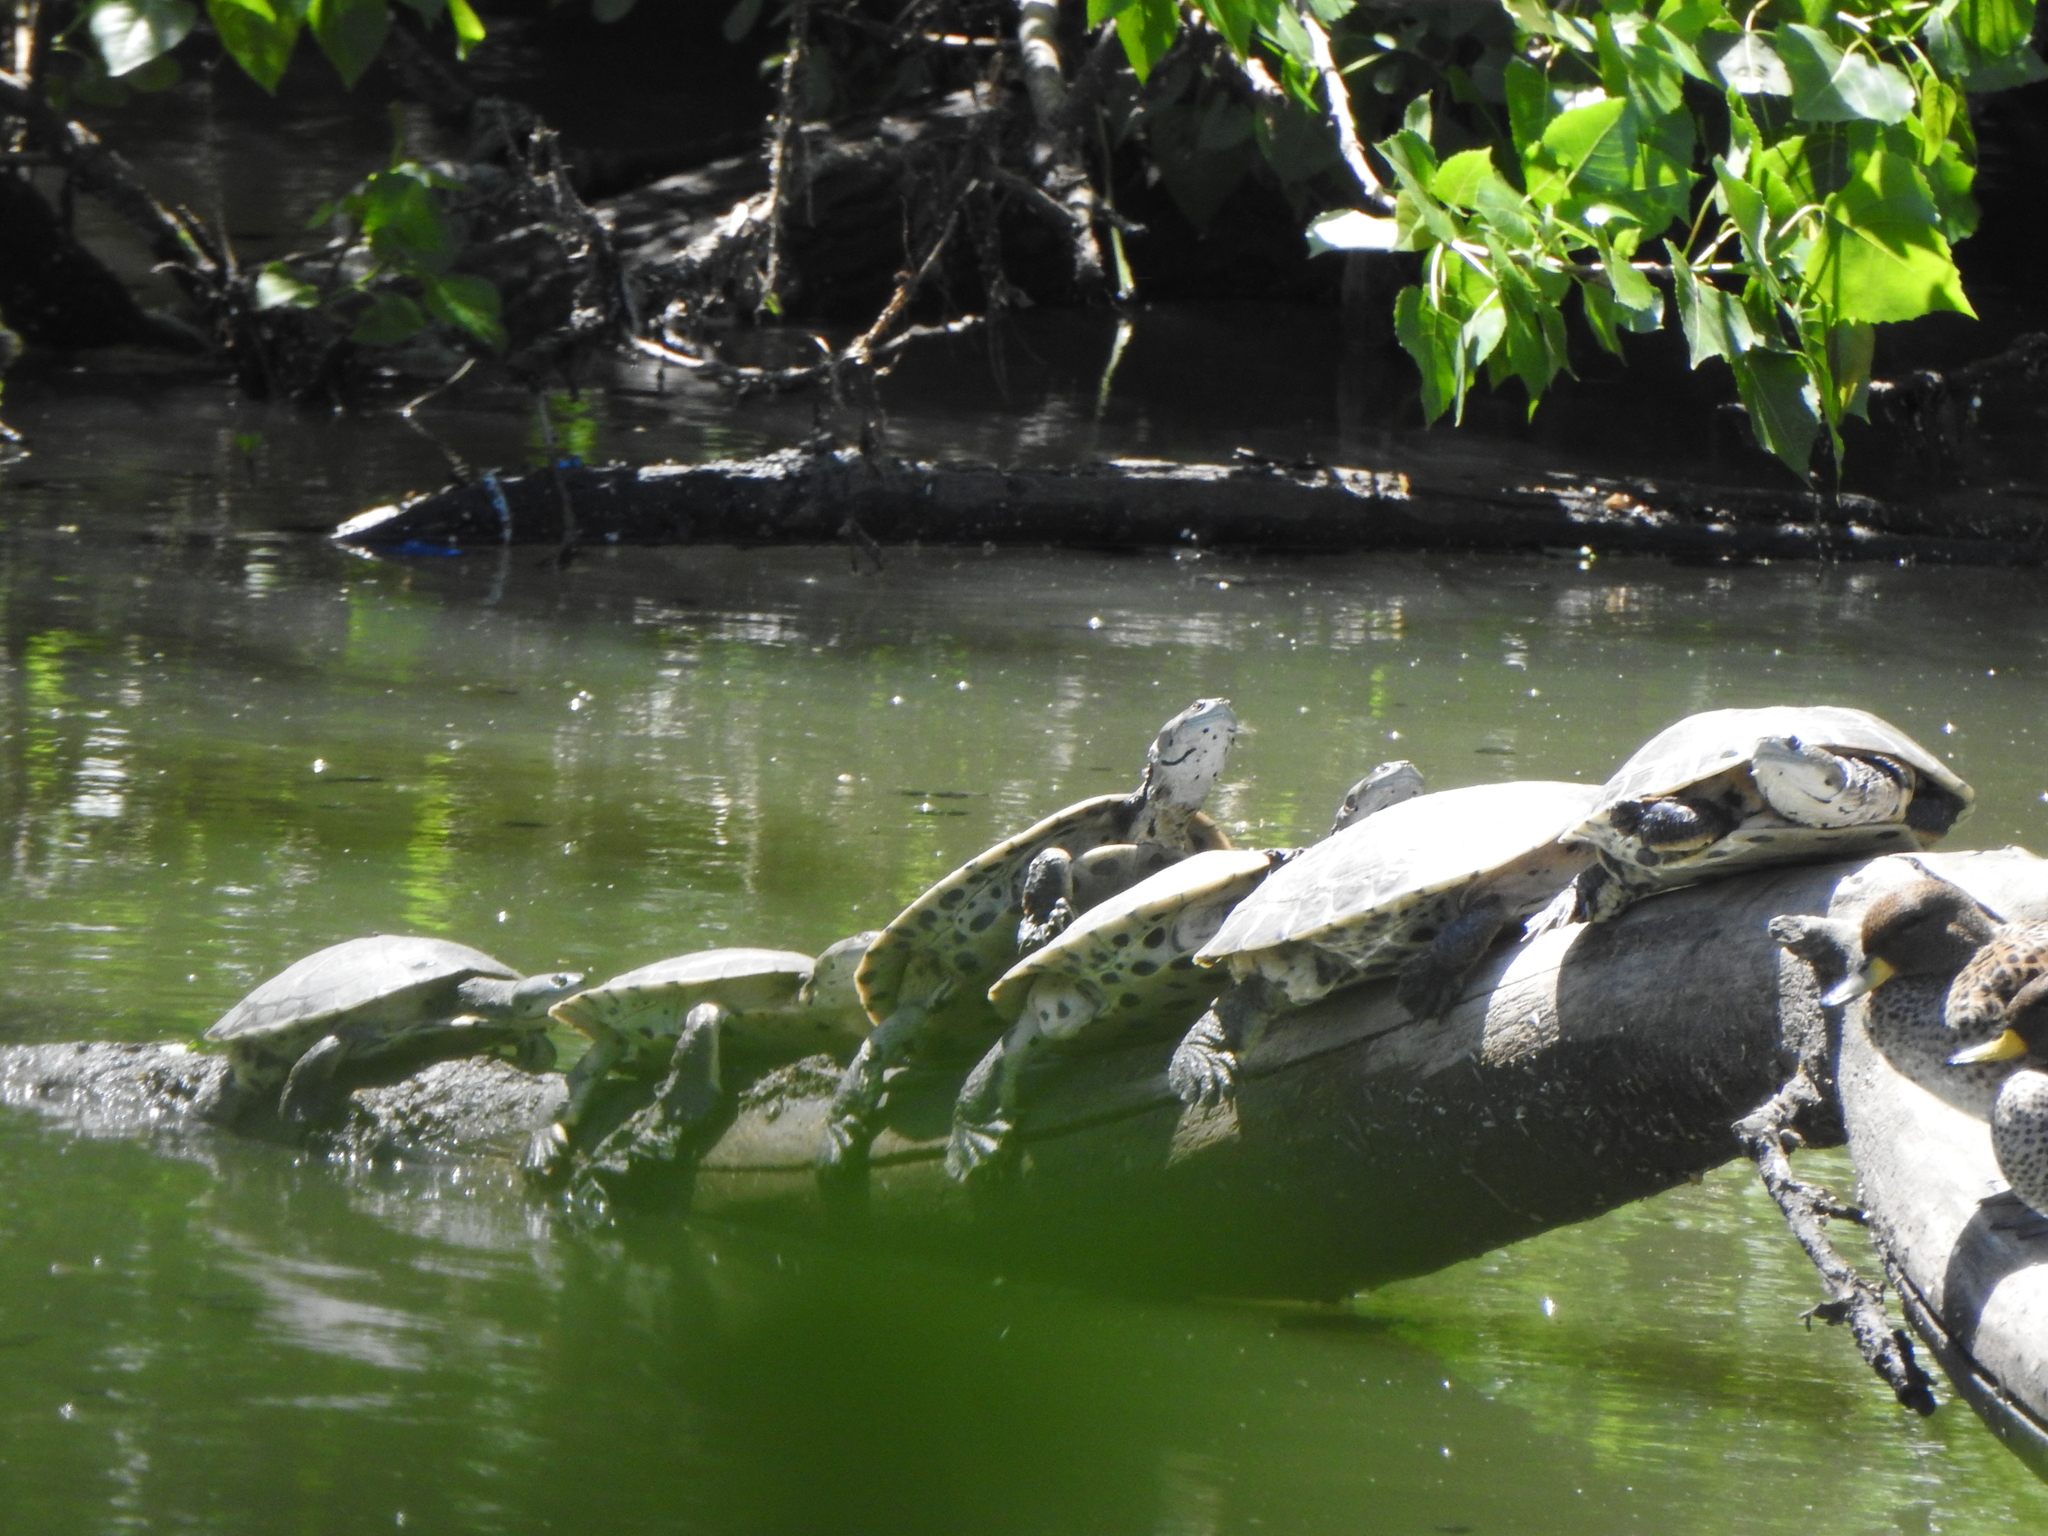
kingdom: Animalia
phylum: Chordata
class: Testudines
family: Chelidae
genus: Phrynops
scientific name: Phrynops hilarii
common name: Side-necked turtle of saint hillaire
